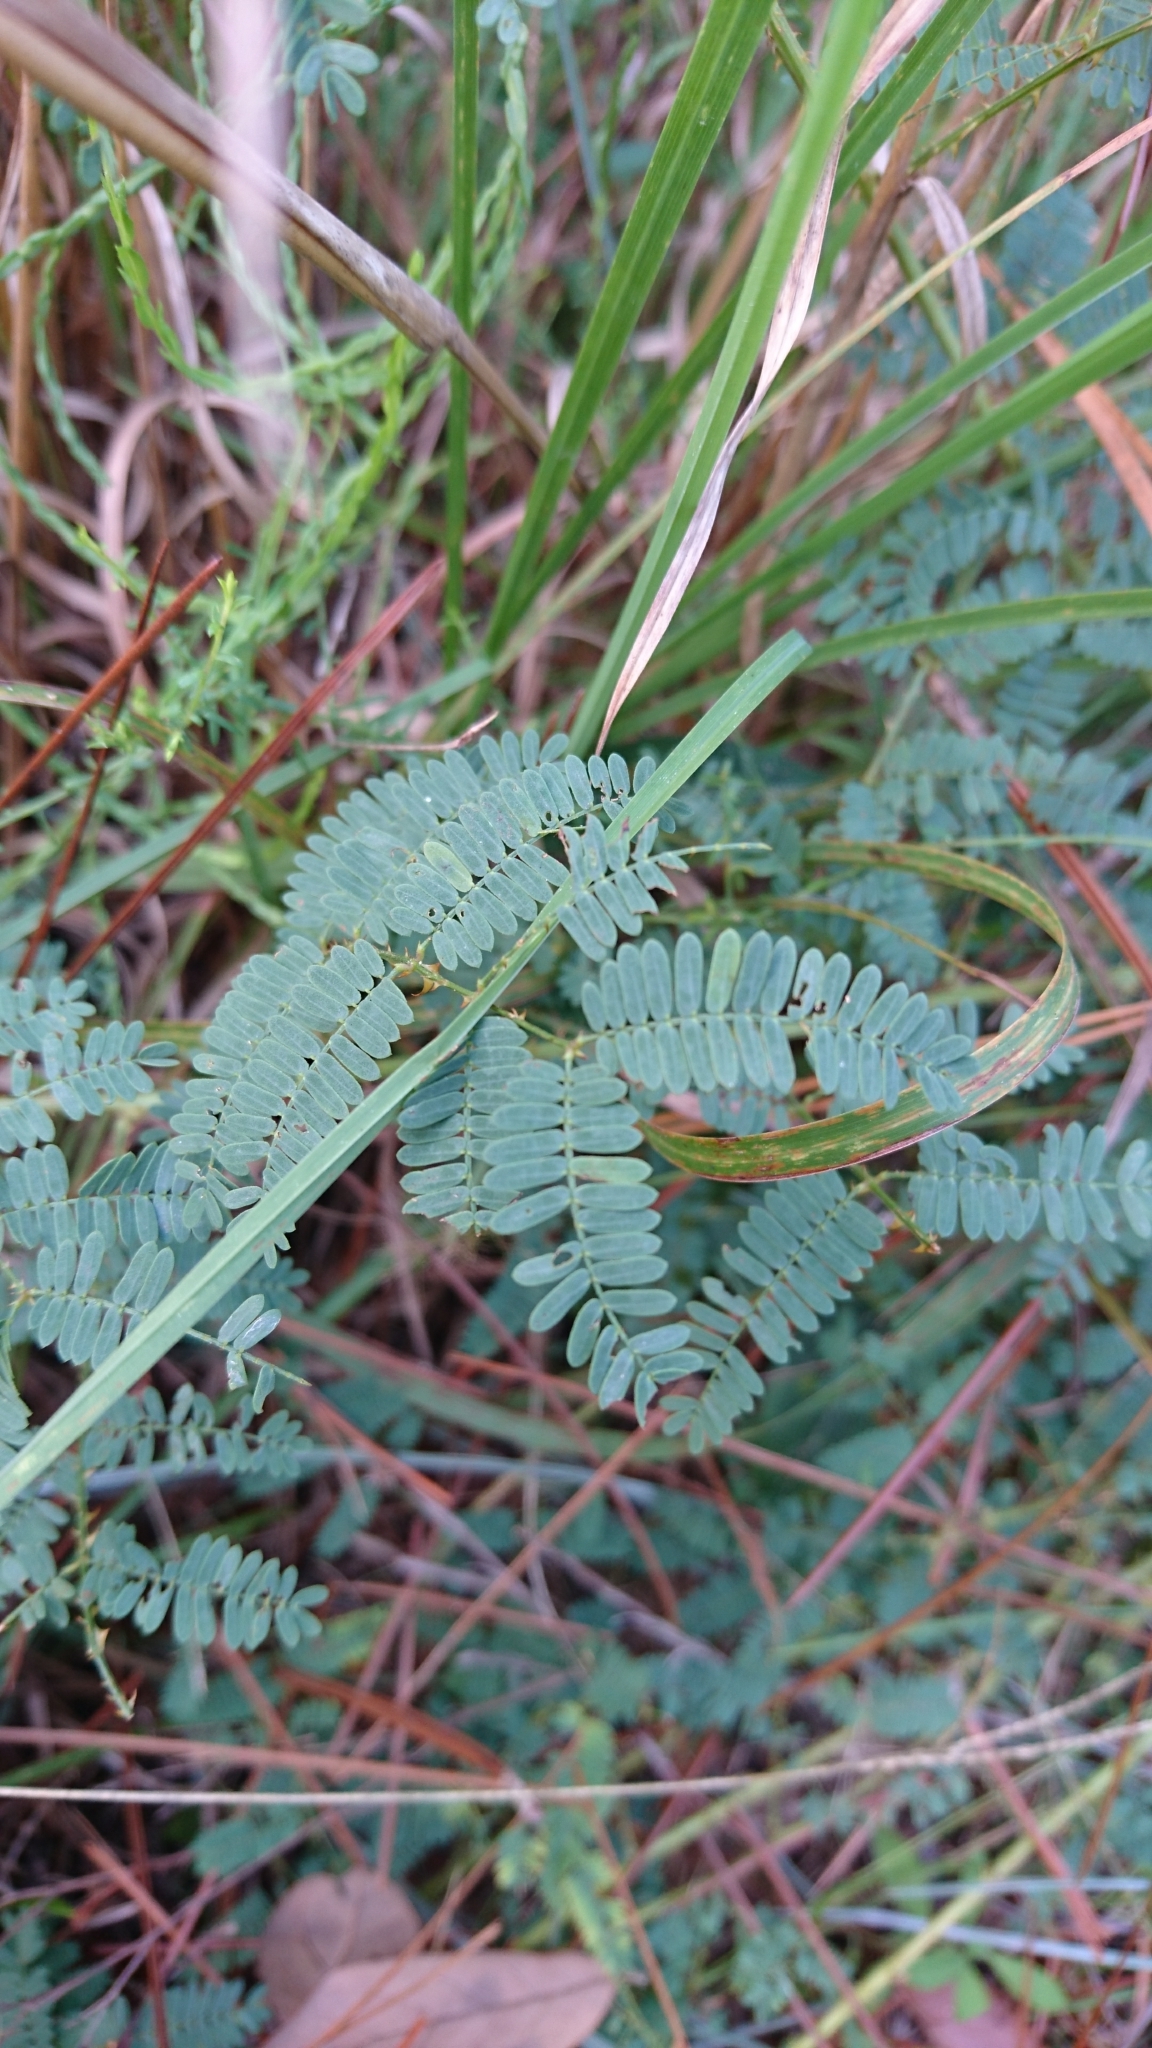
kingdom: Plantae
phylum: Tracheophyta
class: Magnoliopsida
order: Fabales
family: Fabaceae
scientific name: Fabaceae
